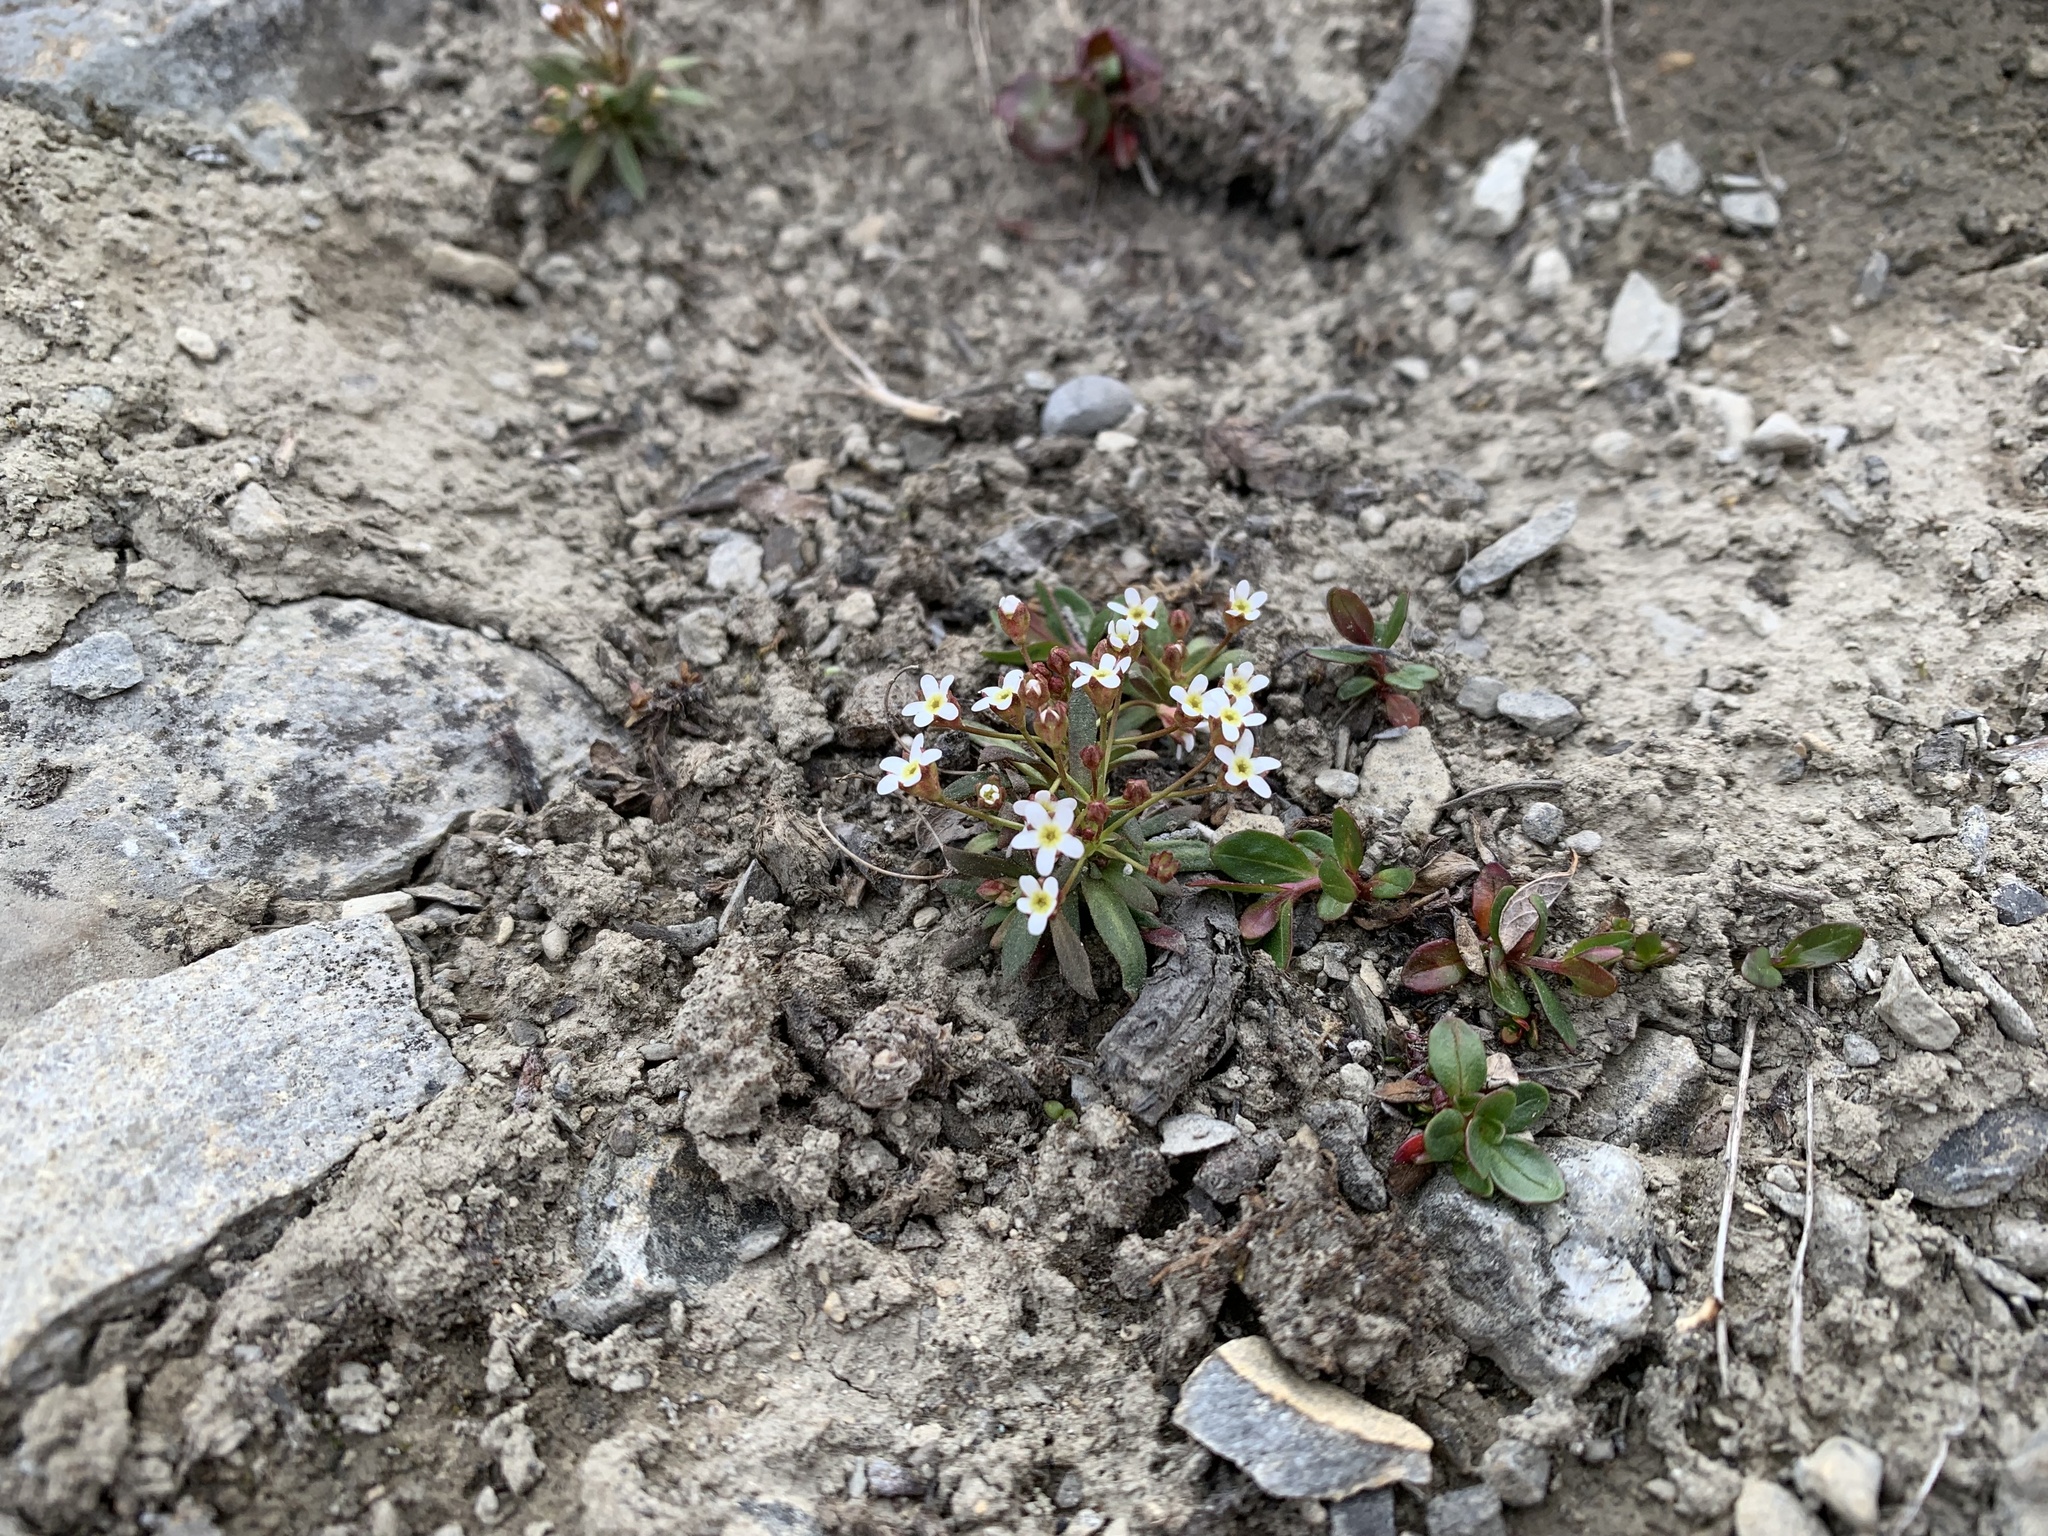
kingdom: Plantae
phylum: Tracheophyta
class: Magnoliopsida
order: Ericales
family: Primulaceae
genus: Androsace
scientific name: Androsace septentrionalis
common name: Hairy northern fairy-candelabra
